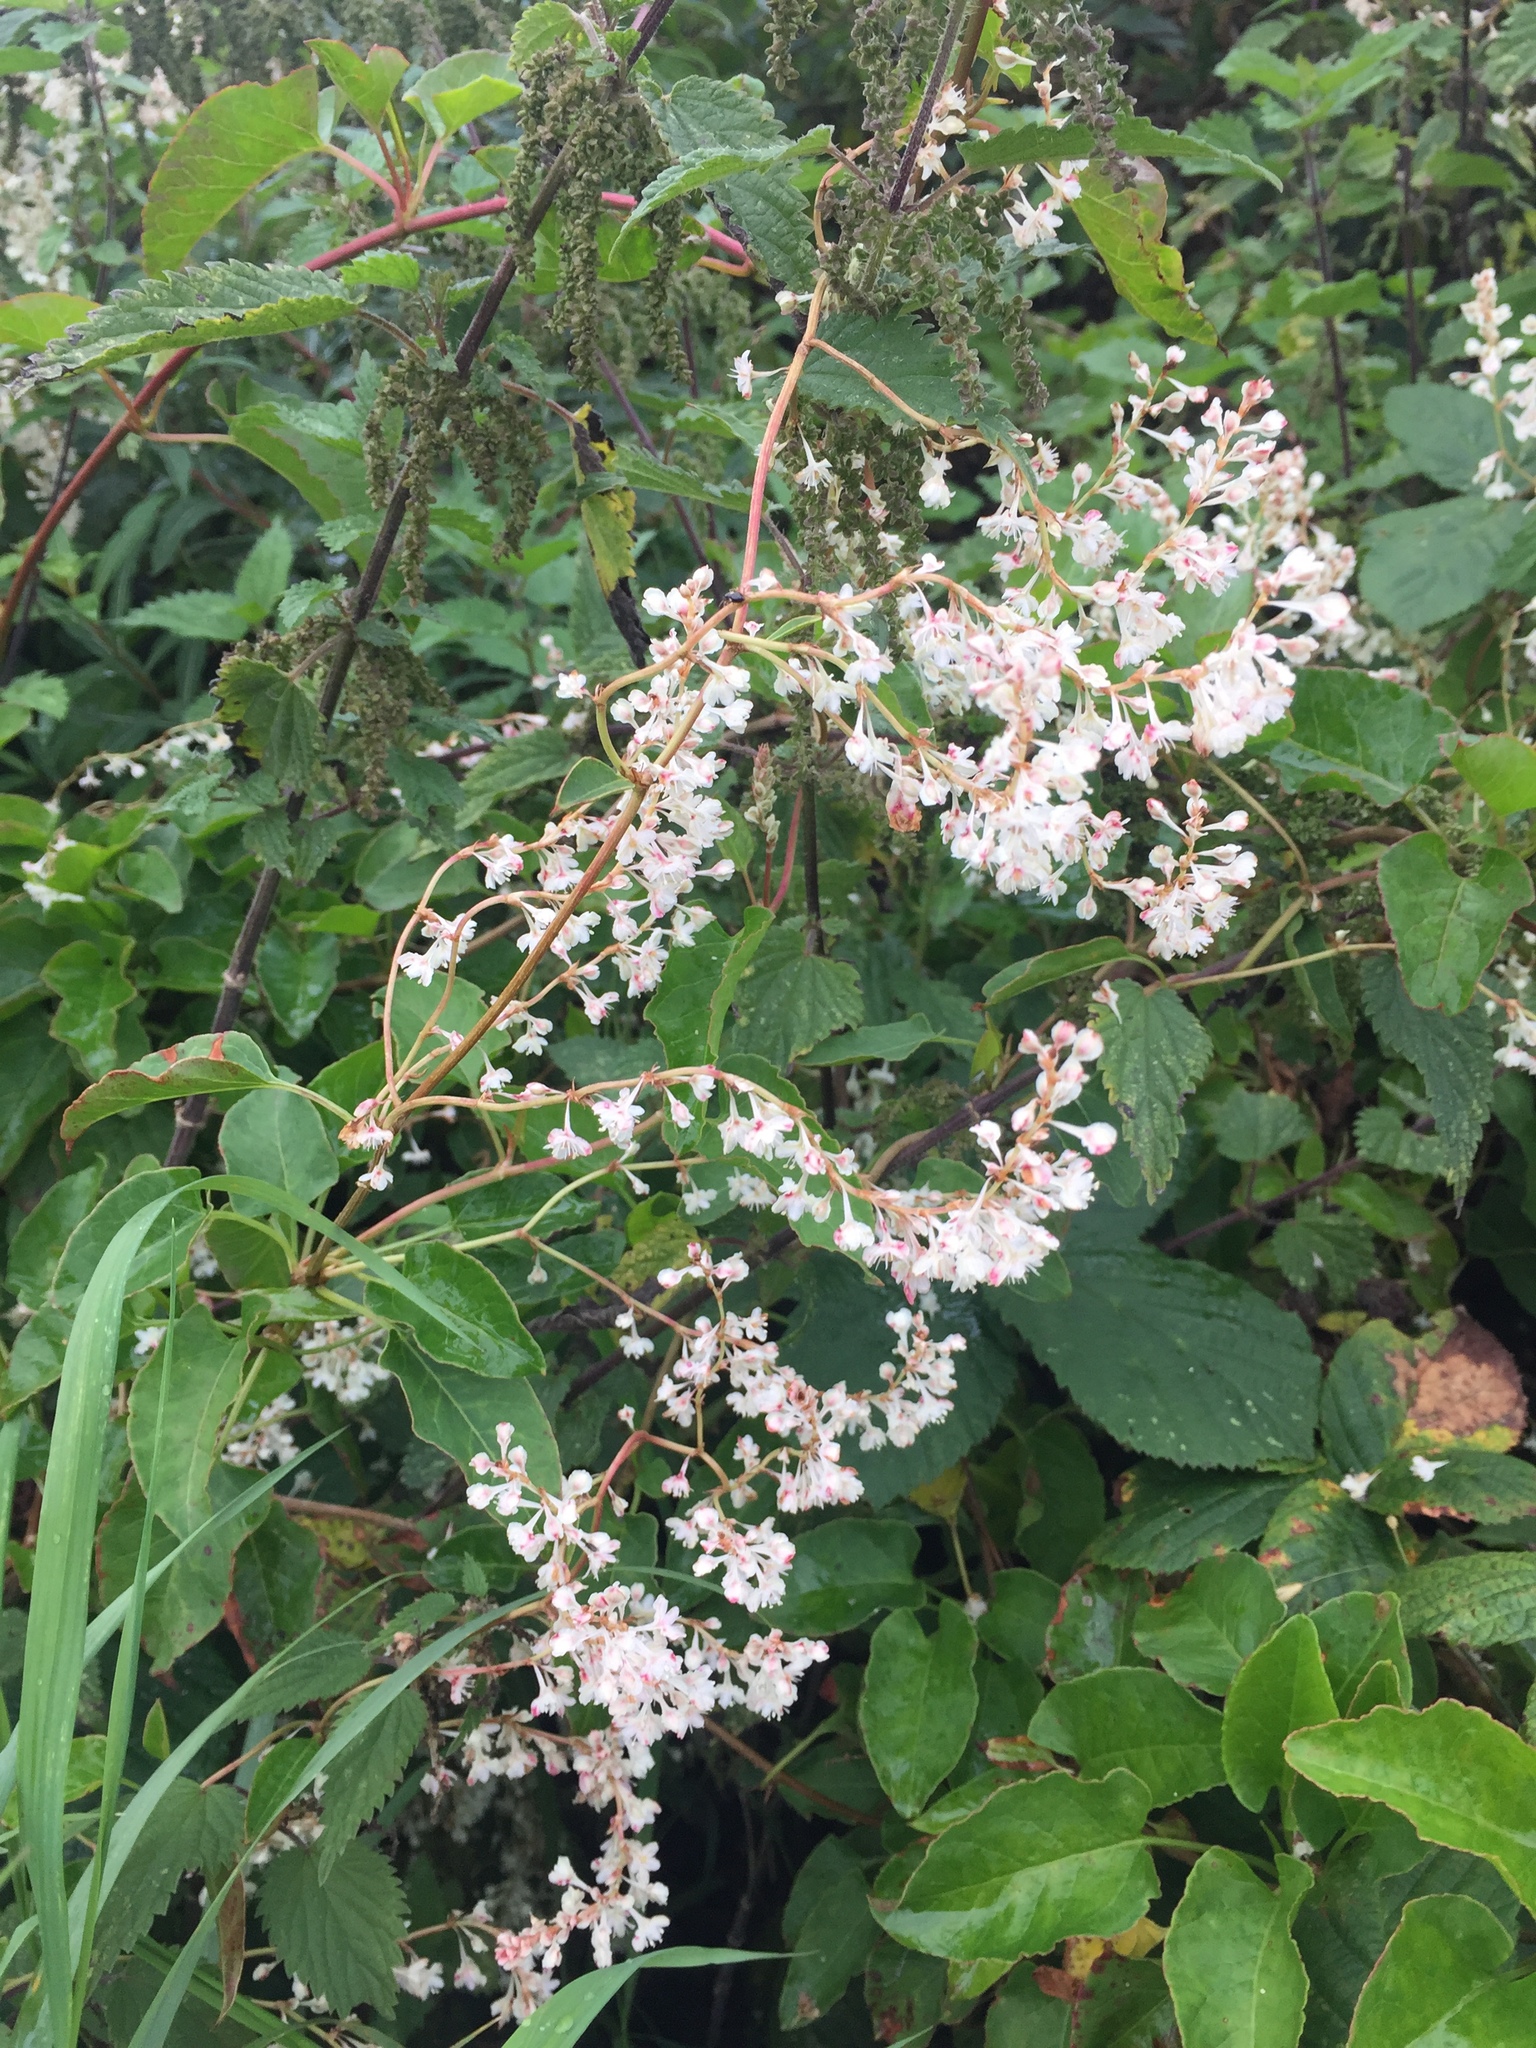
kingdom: Plantae
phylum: Tracheophyta
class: Magnoliopsida
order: Caryophyllales
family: Polygonaceae
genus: Fallopia
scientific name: Fallopia baldschuanica
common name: Russian-vine
